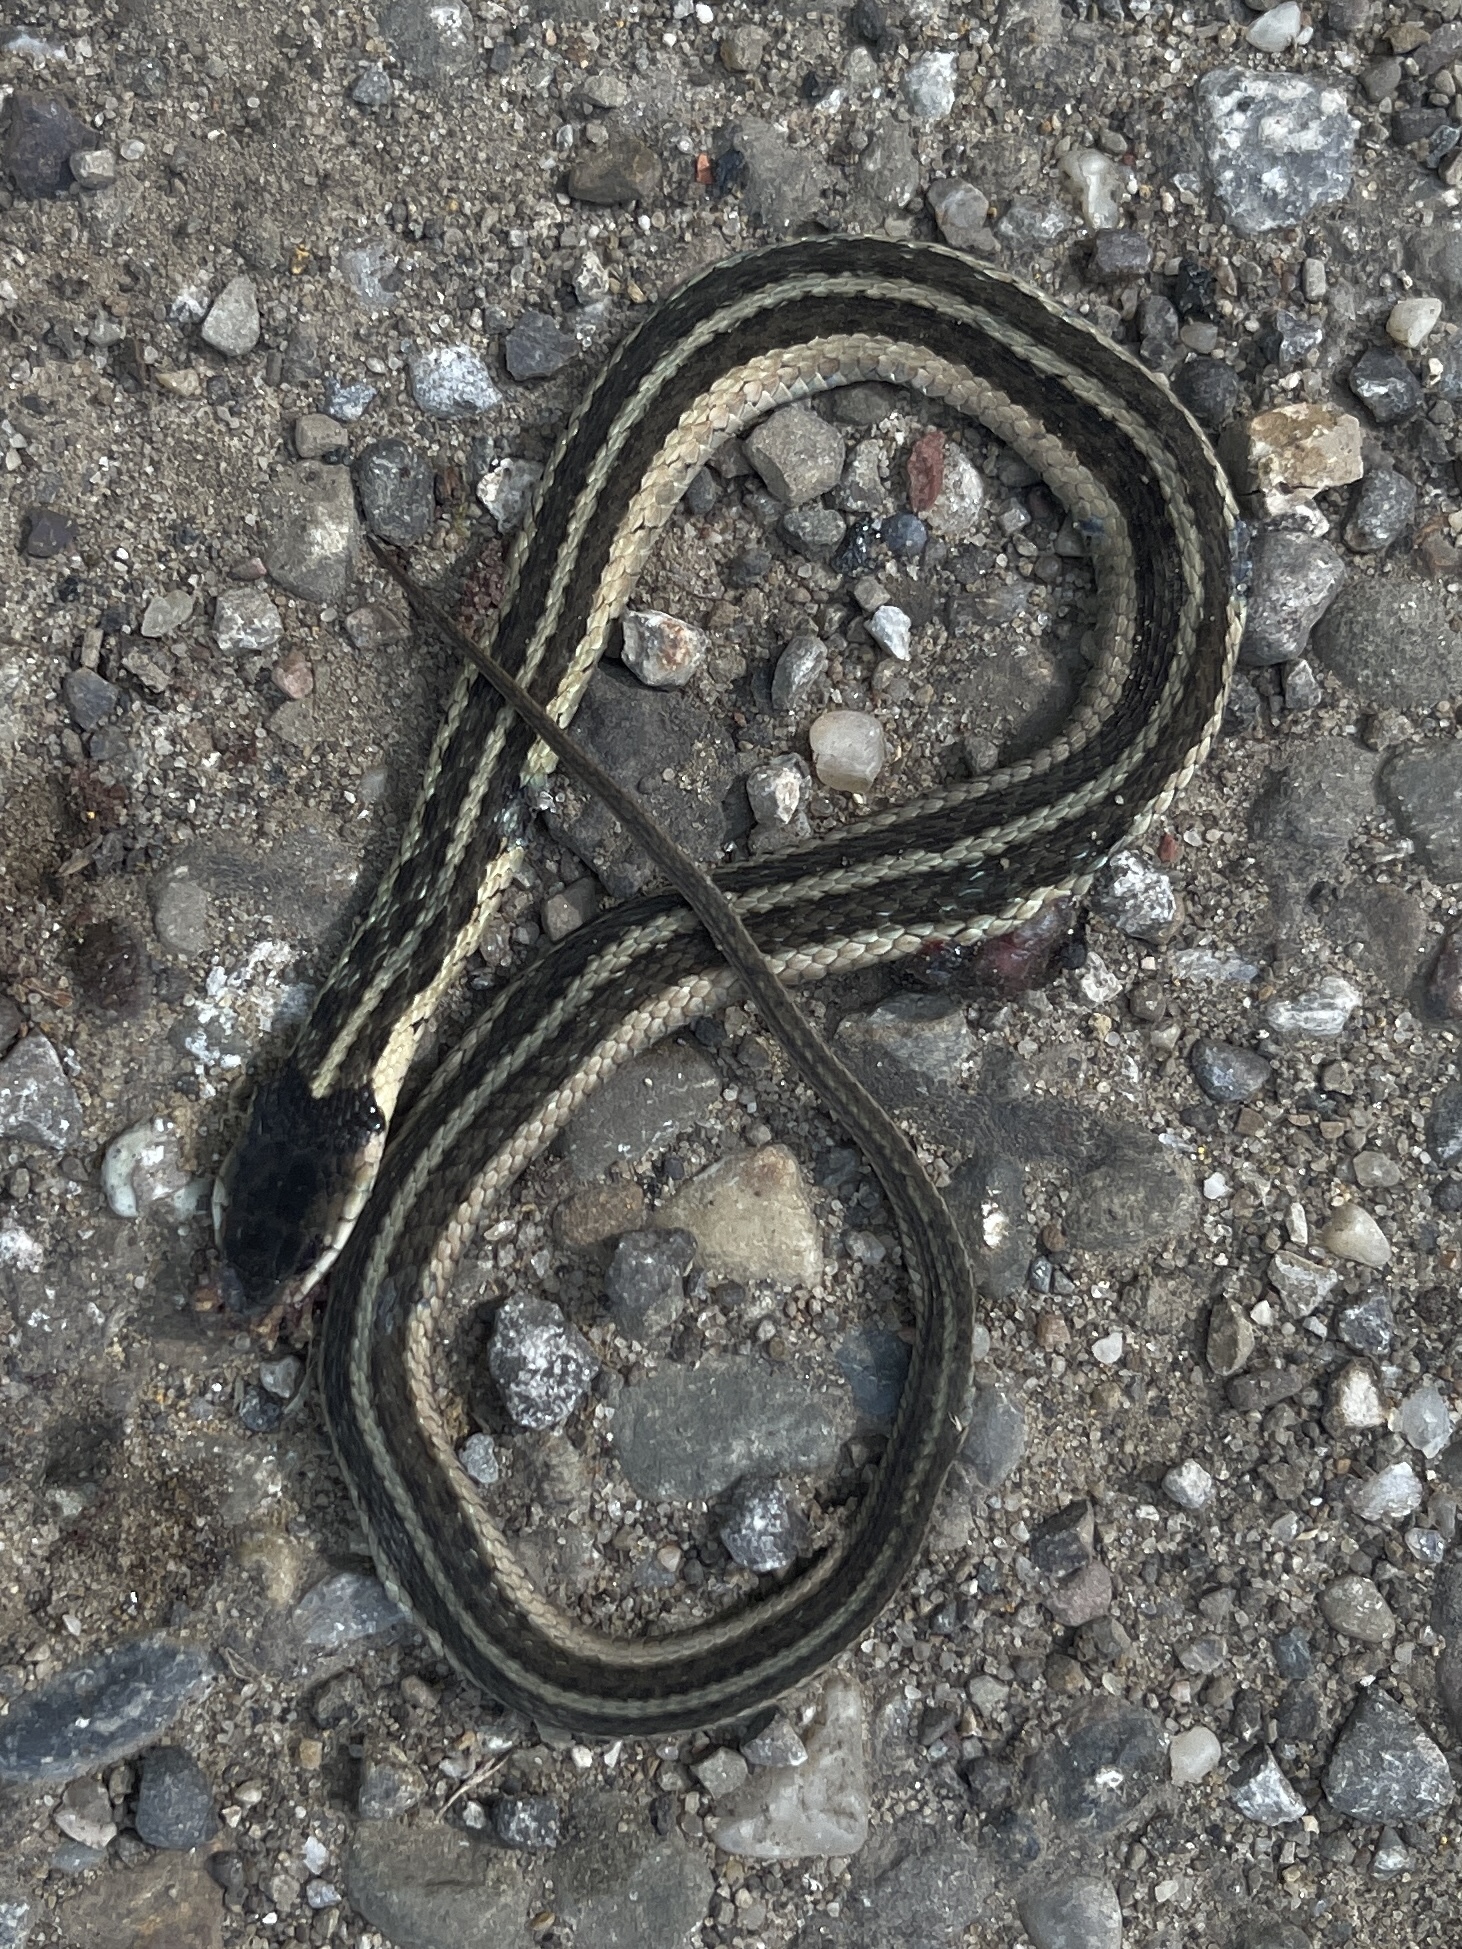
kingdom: Animalia
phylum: Chordata
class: Squamata
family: Colubridae
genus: Thamnophis
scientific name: Thamnophis sirtalis
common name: Common garter snake
